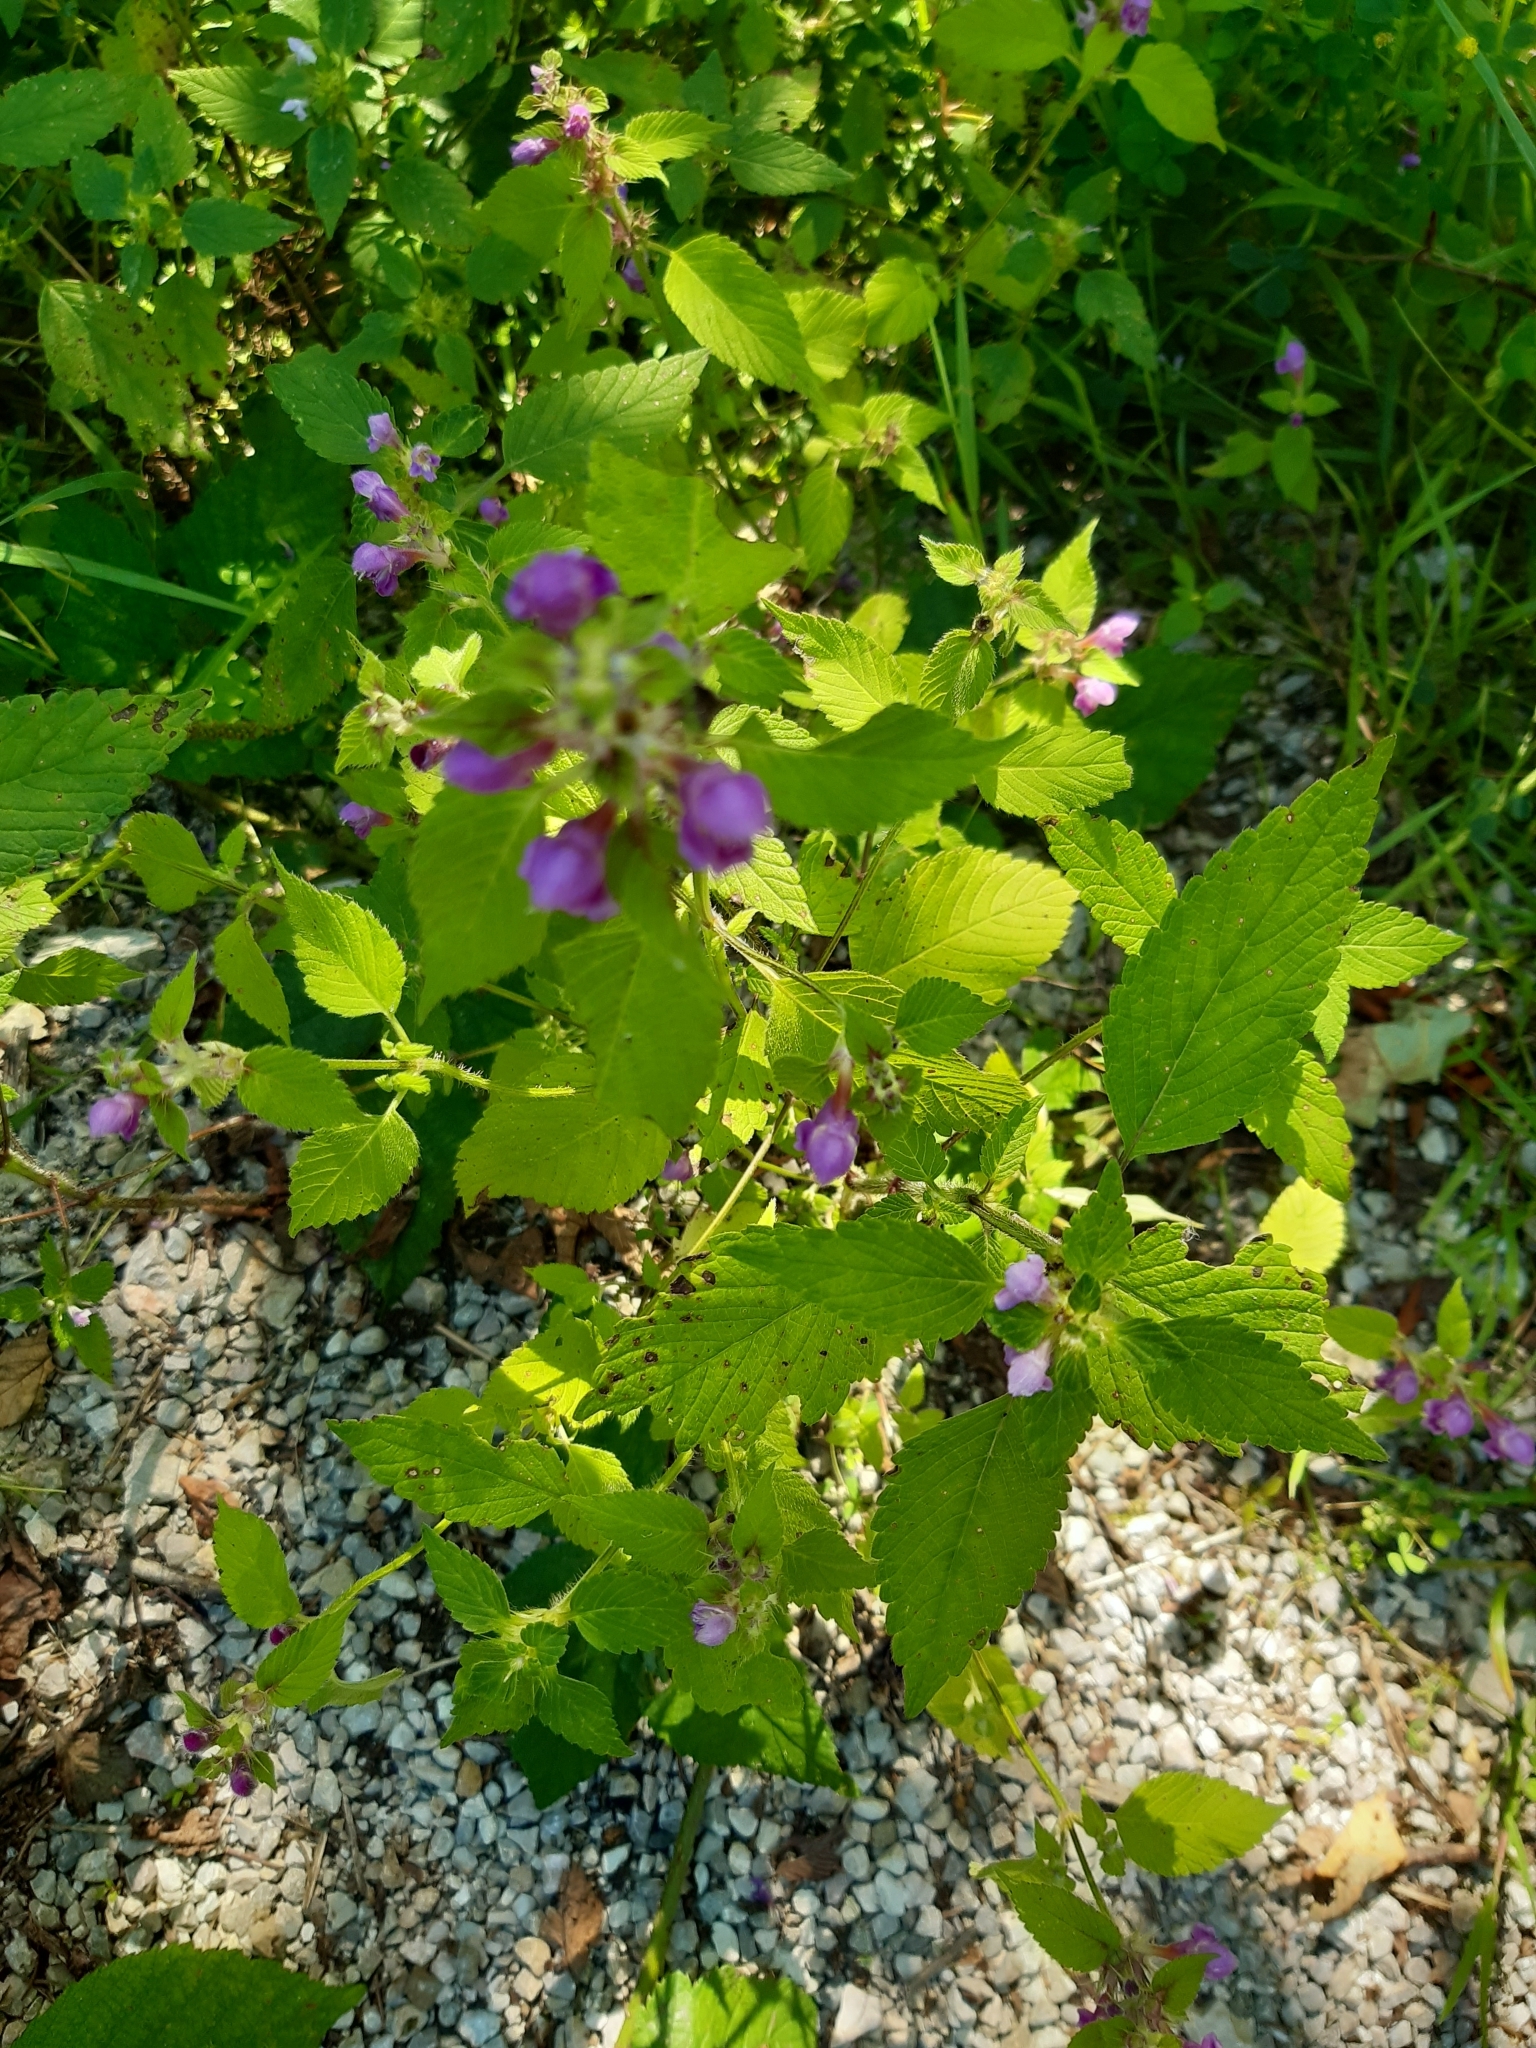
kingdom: Plantae
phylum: Tracheophyta
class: Magnoliopsida
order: Lamiales
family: Lamiaceae
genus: Galeopsis
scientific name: Galeopsis tetrahit
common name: Common hemp-nettle
